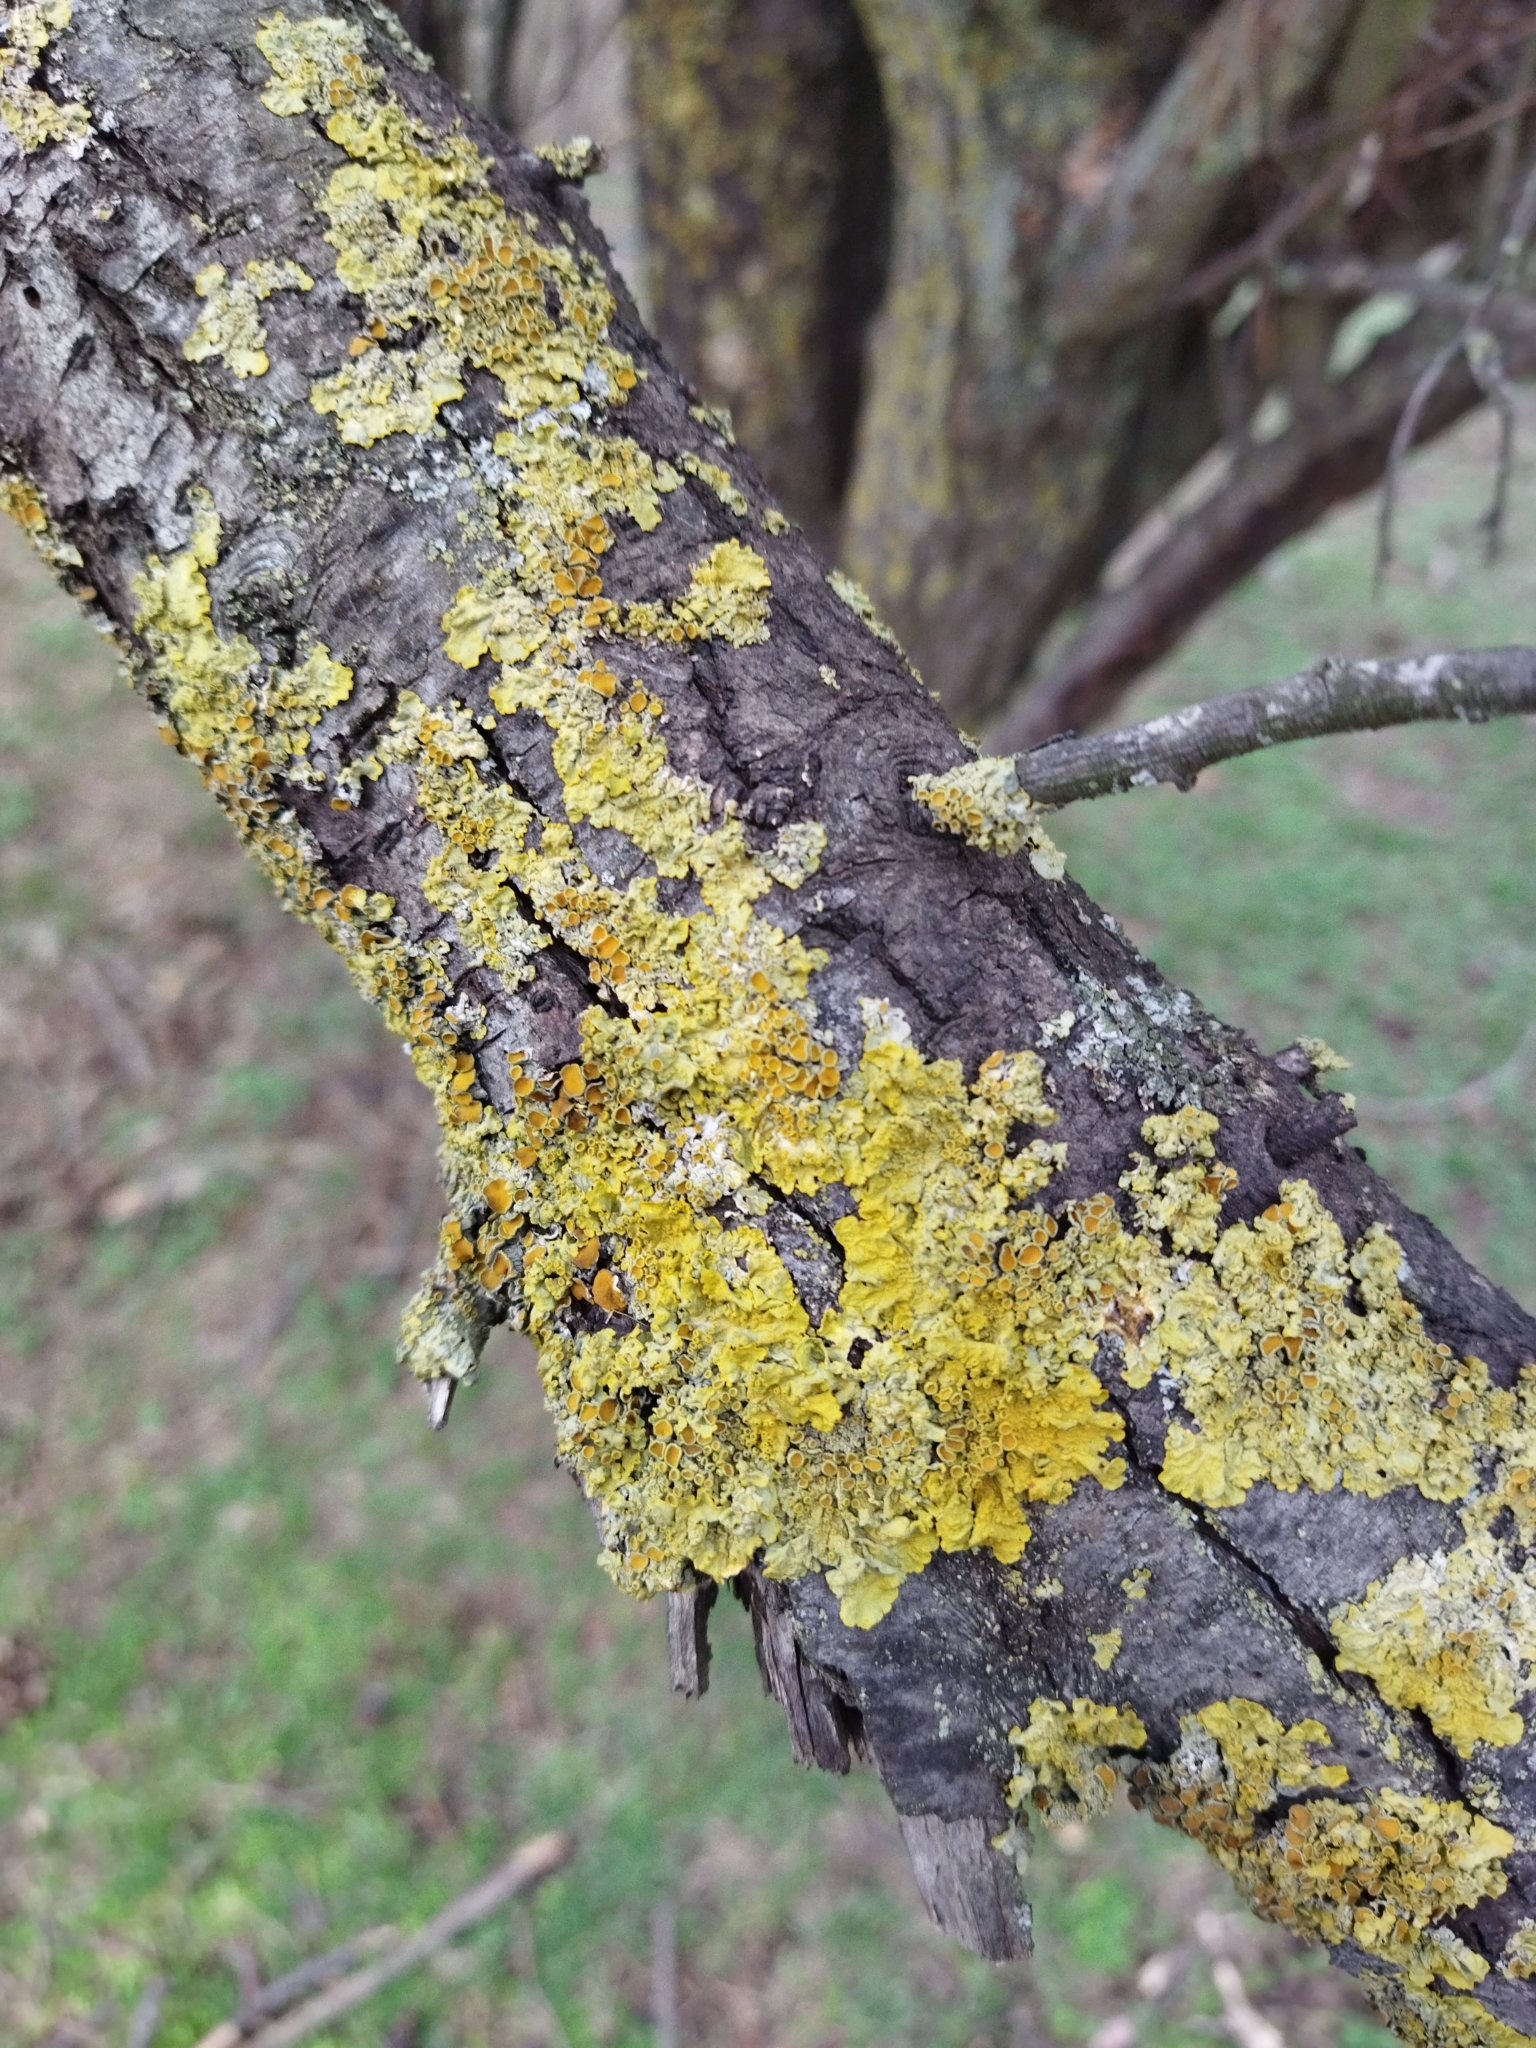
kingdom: Fungi
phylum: Ascomycota
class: Lecanoromycetes
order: Teloschistales
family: Teloschistaceae
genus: Xanthoria
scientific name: Xanthoria parietina
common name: Common orange lichen
